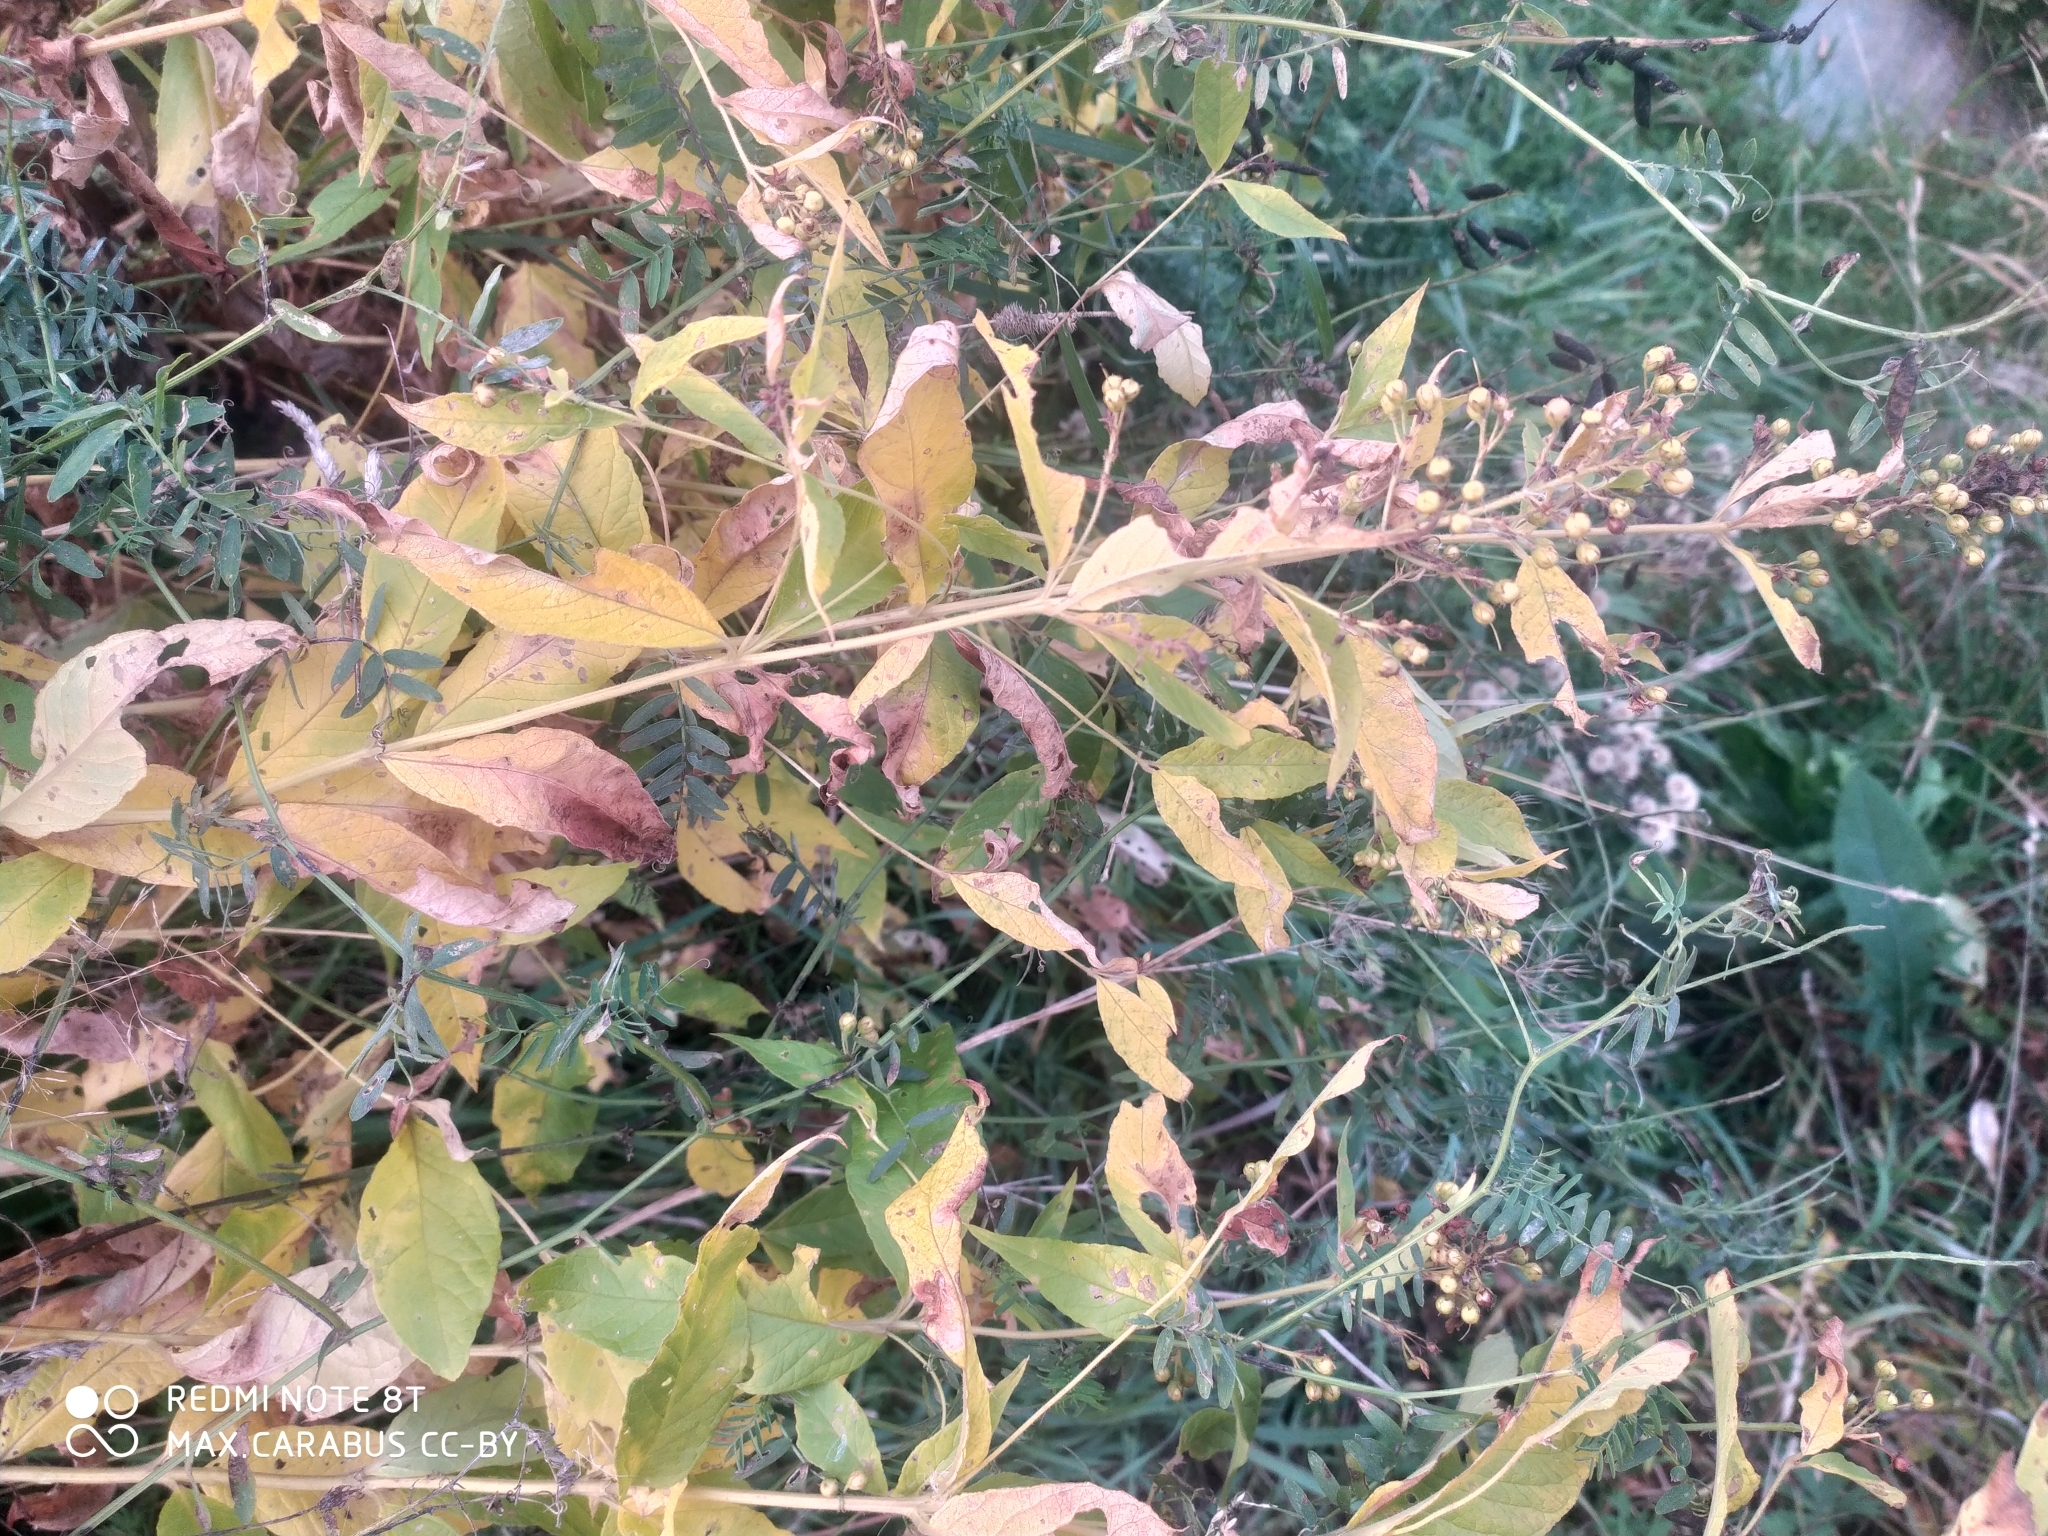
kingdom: Plantae
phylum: Tracheophyta
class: Magnoliopsida
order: Ericales
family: Primulaceae
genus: Lysimachia
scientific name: Lysimachia vulgaris
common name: Yellow loosestrife
